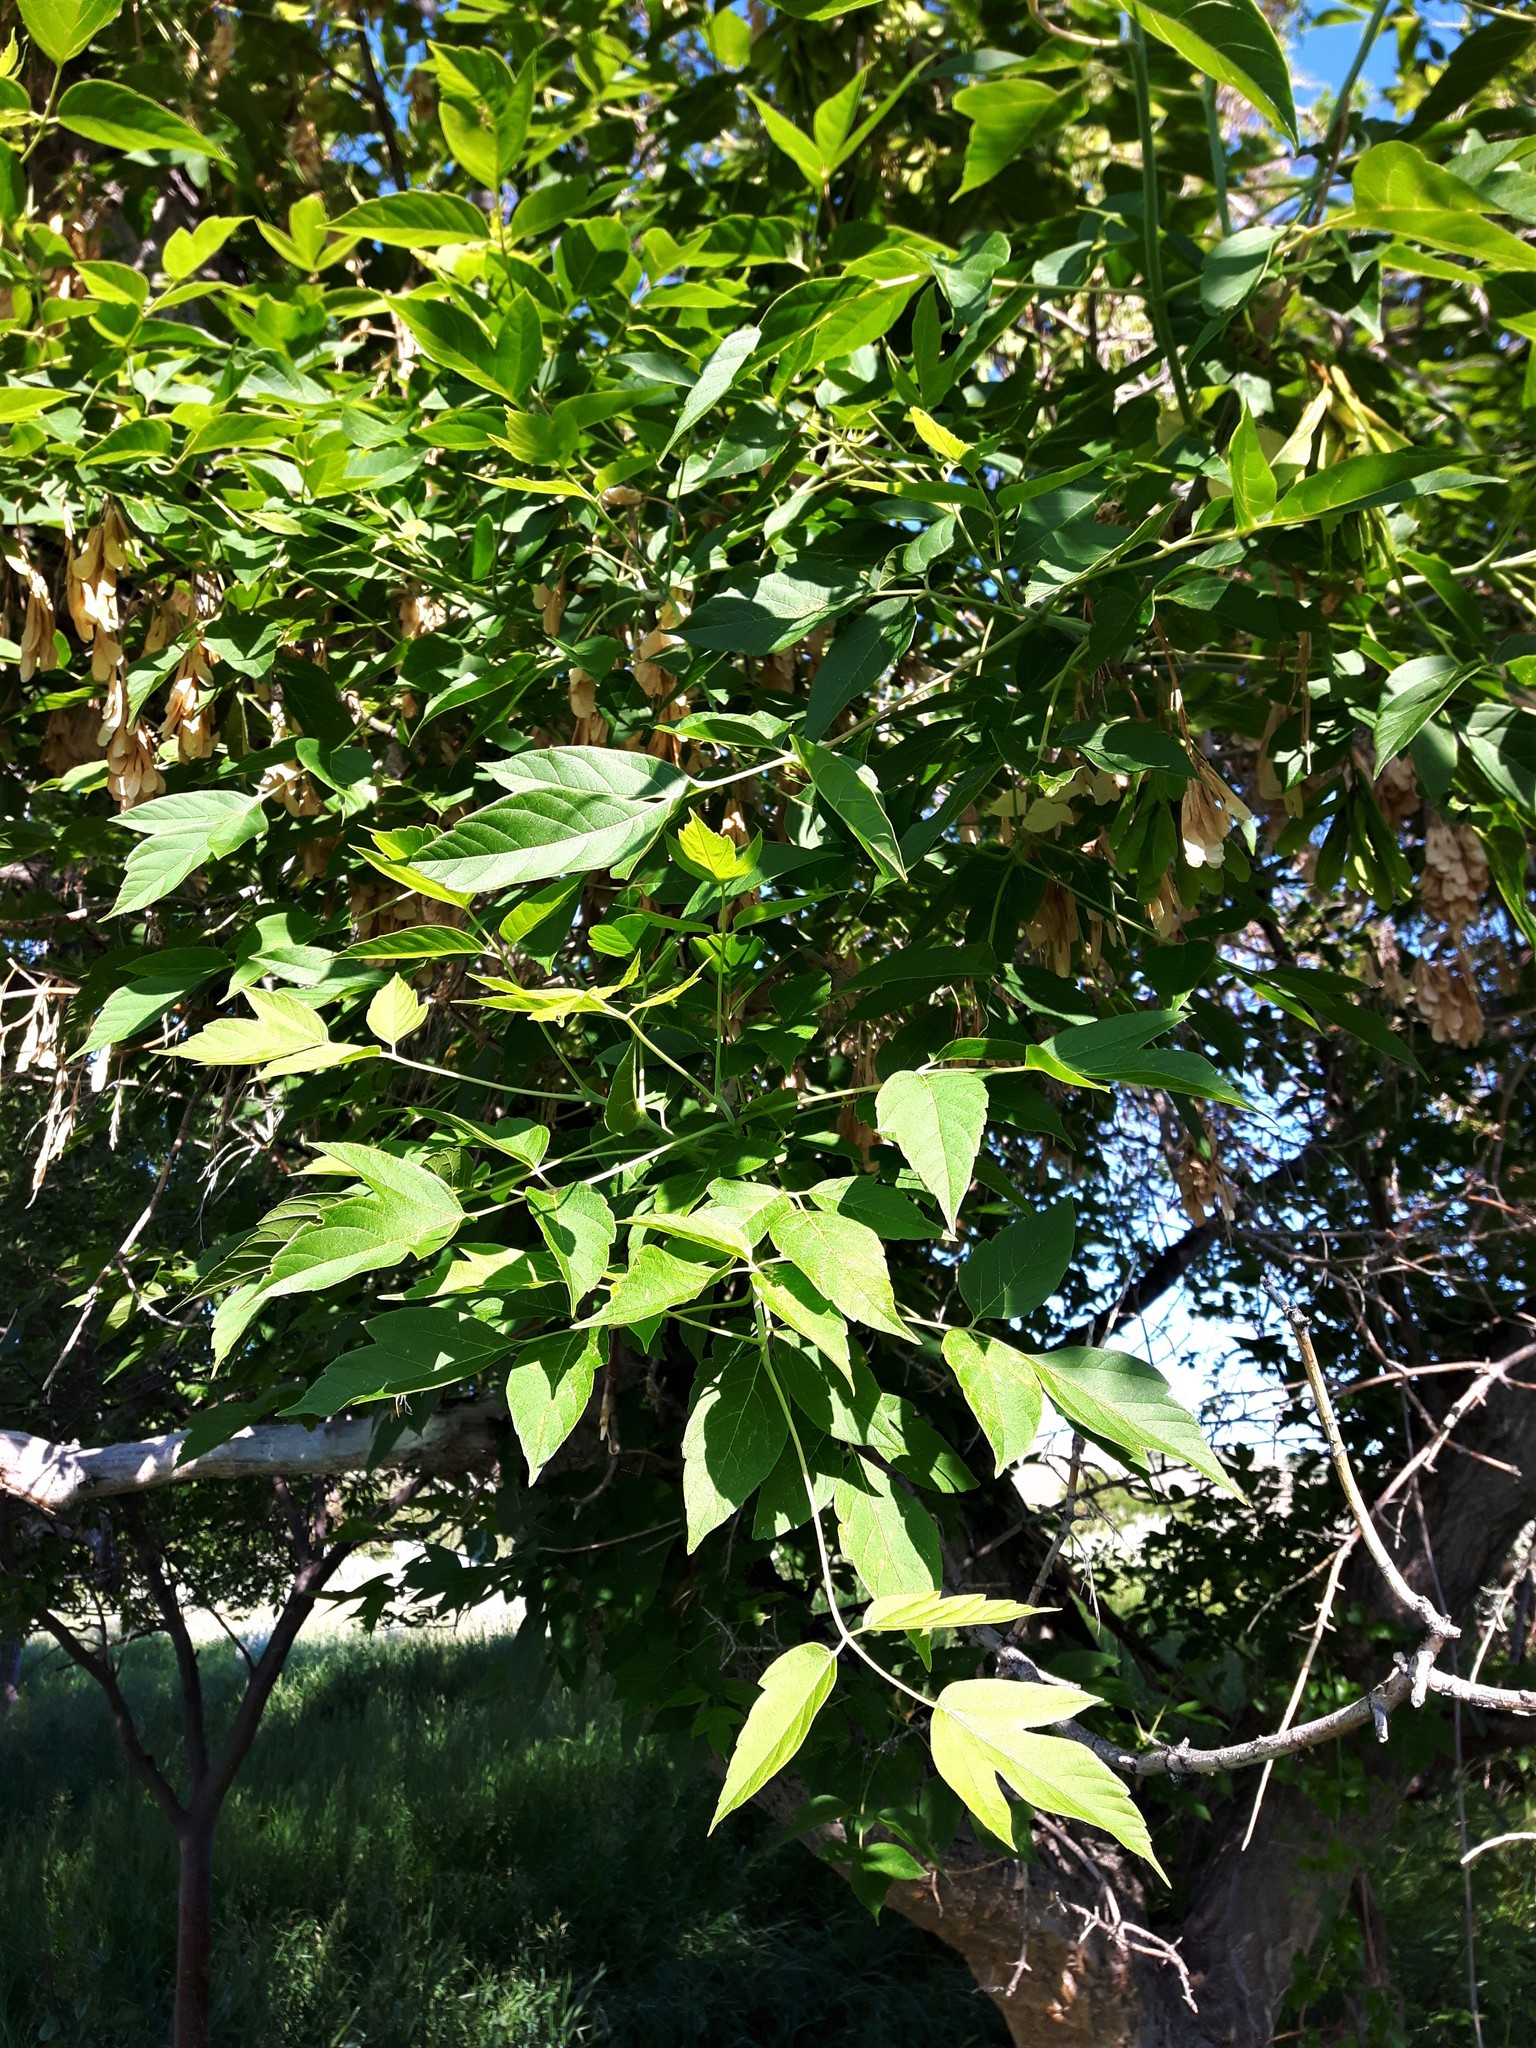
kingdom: Plantae
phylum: Tracheophyta
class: Magnoliopsida
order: Sapindales
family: Sapindaceae
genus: Acer
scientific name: Acer negundo
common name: Ashleaf maple
